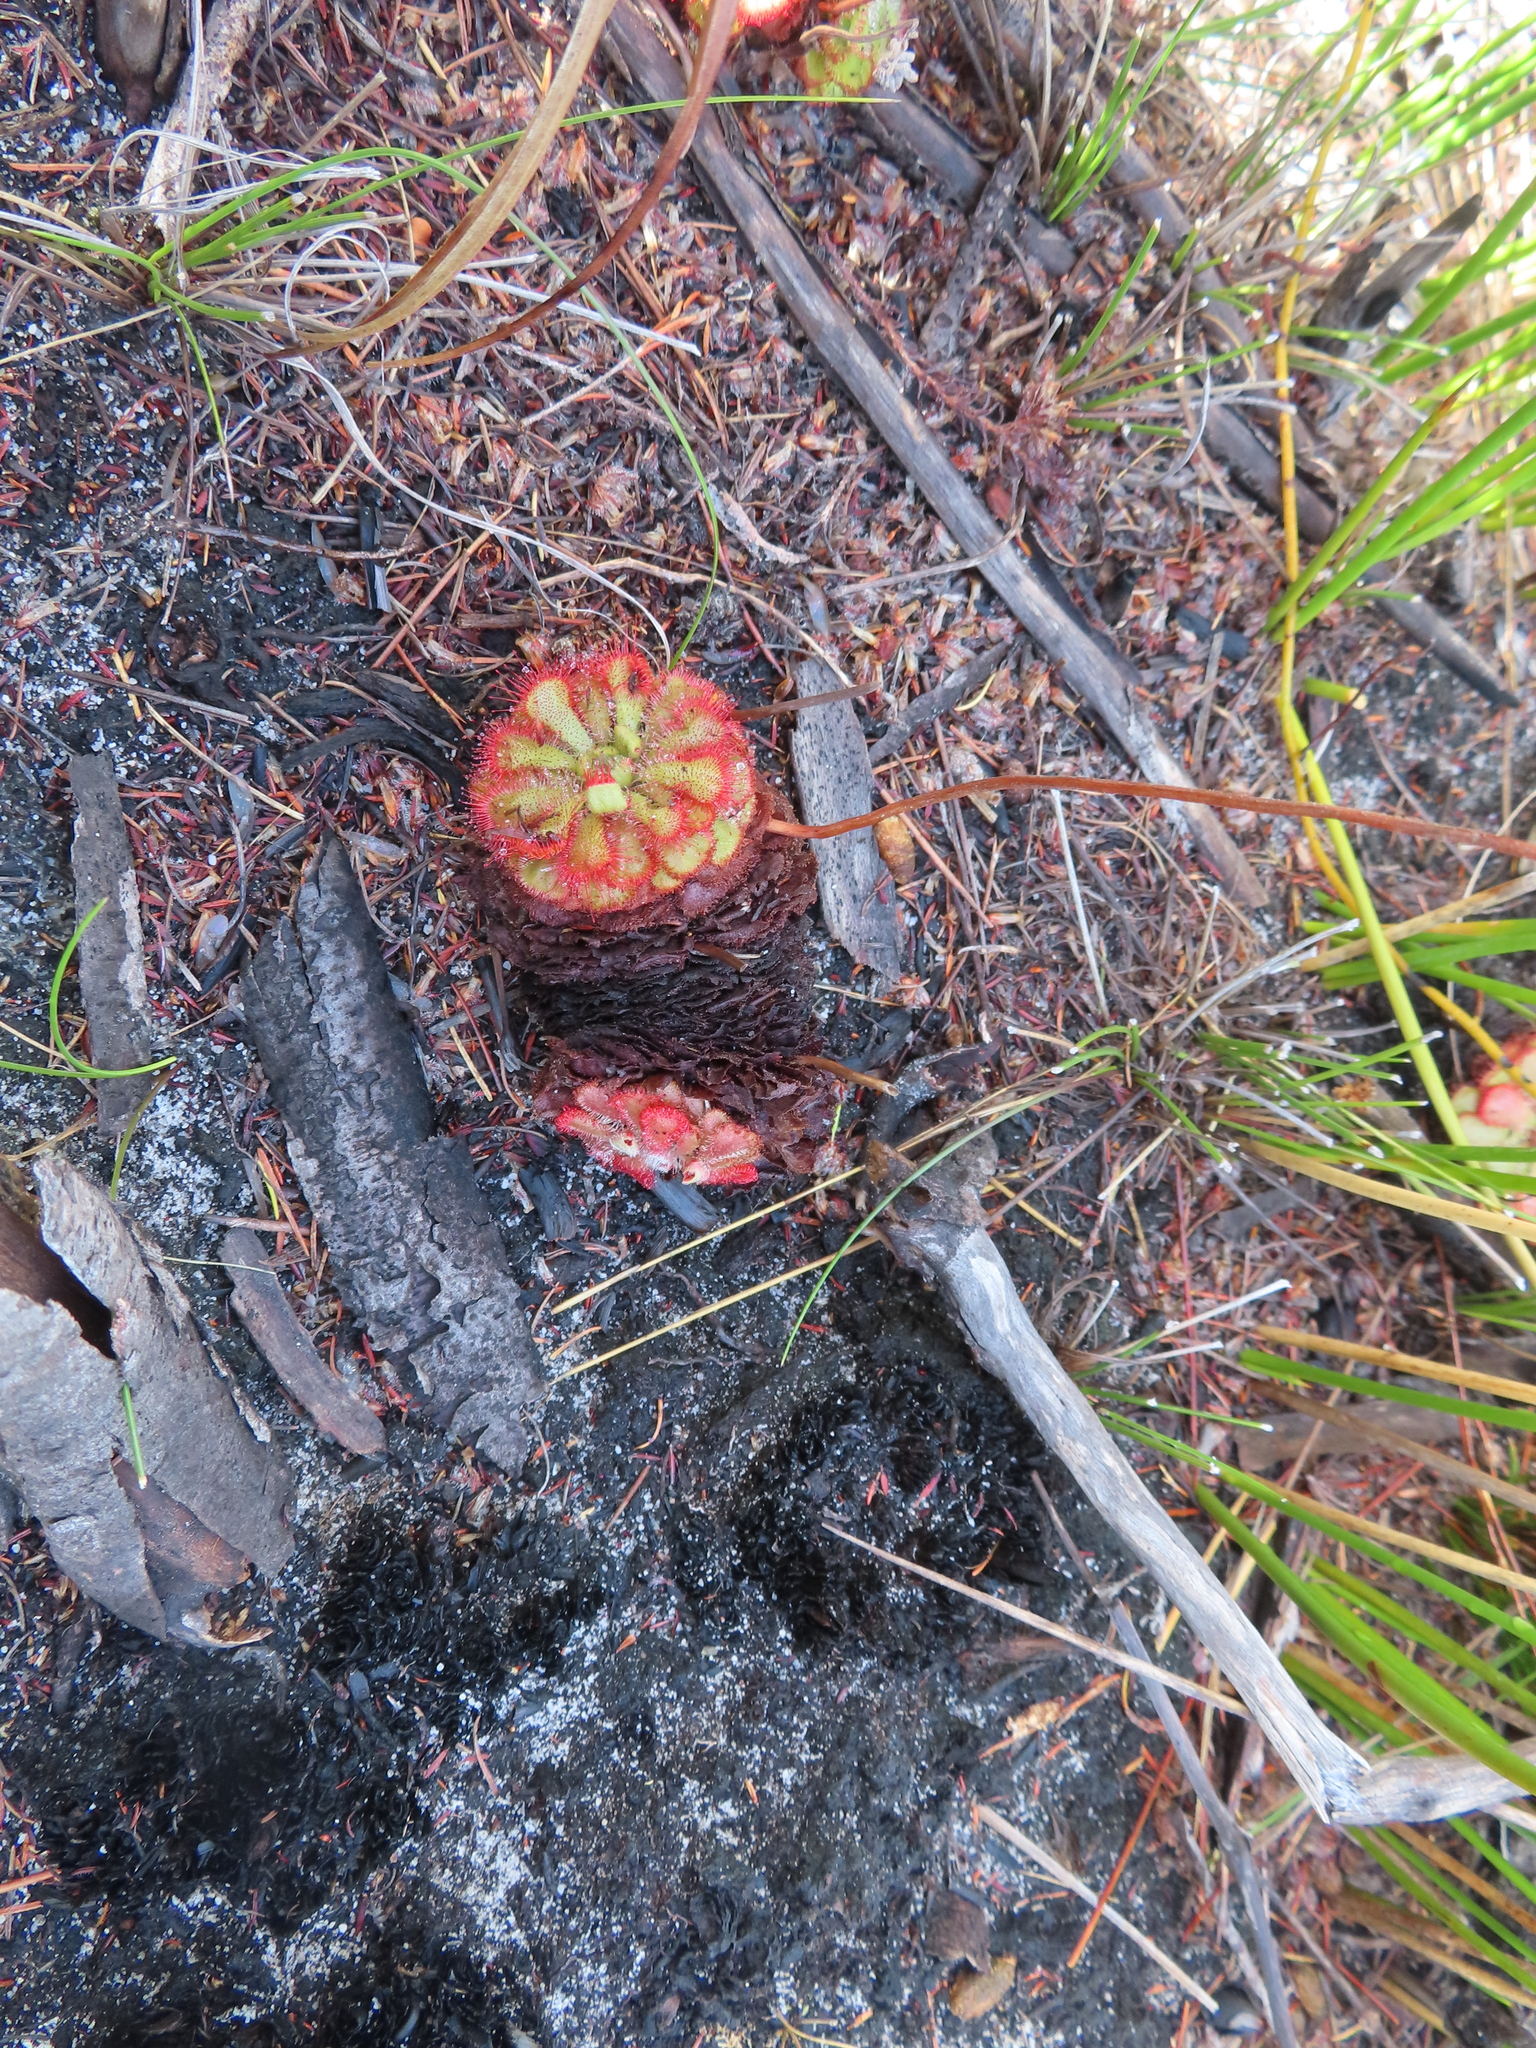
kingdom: Plantae
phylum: Tracheophyta
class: Magnoliopsida
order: Caryophyllales
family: Droseraceae
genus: Drosera
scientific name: Drosera aliciae
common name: Alice sundew
